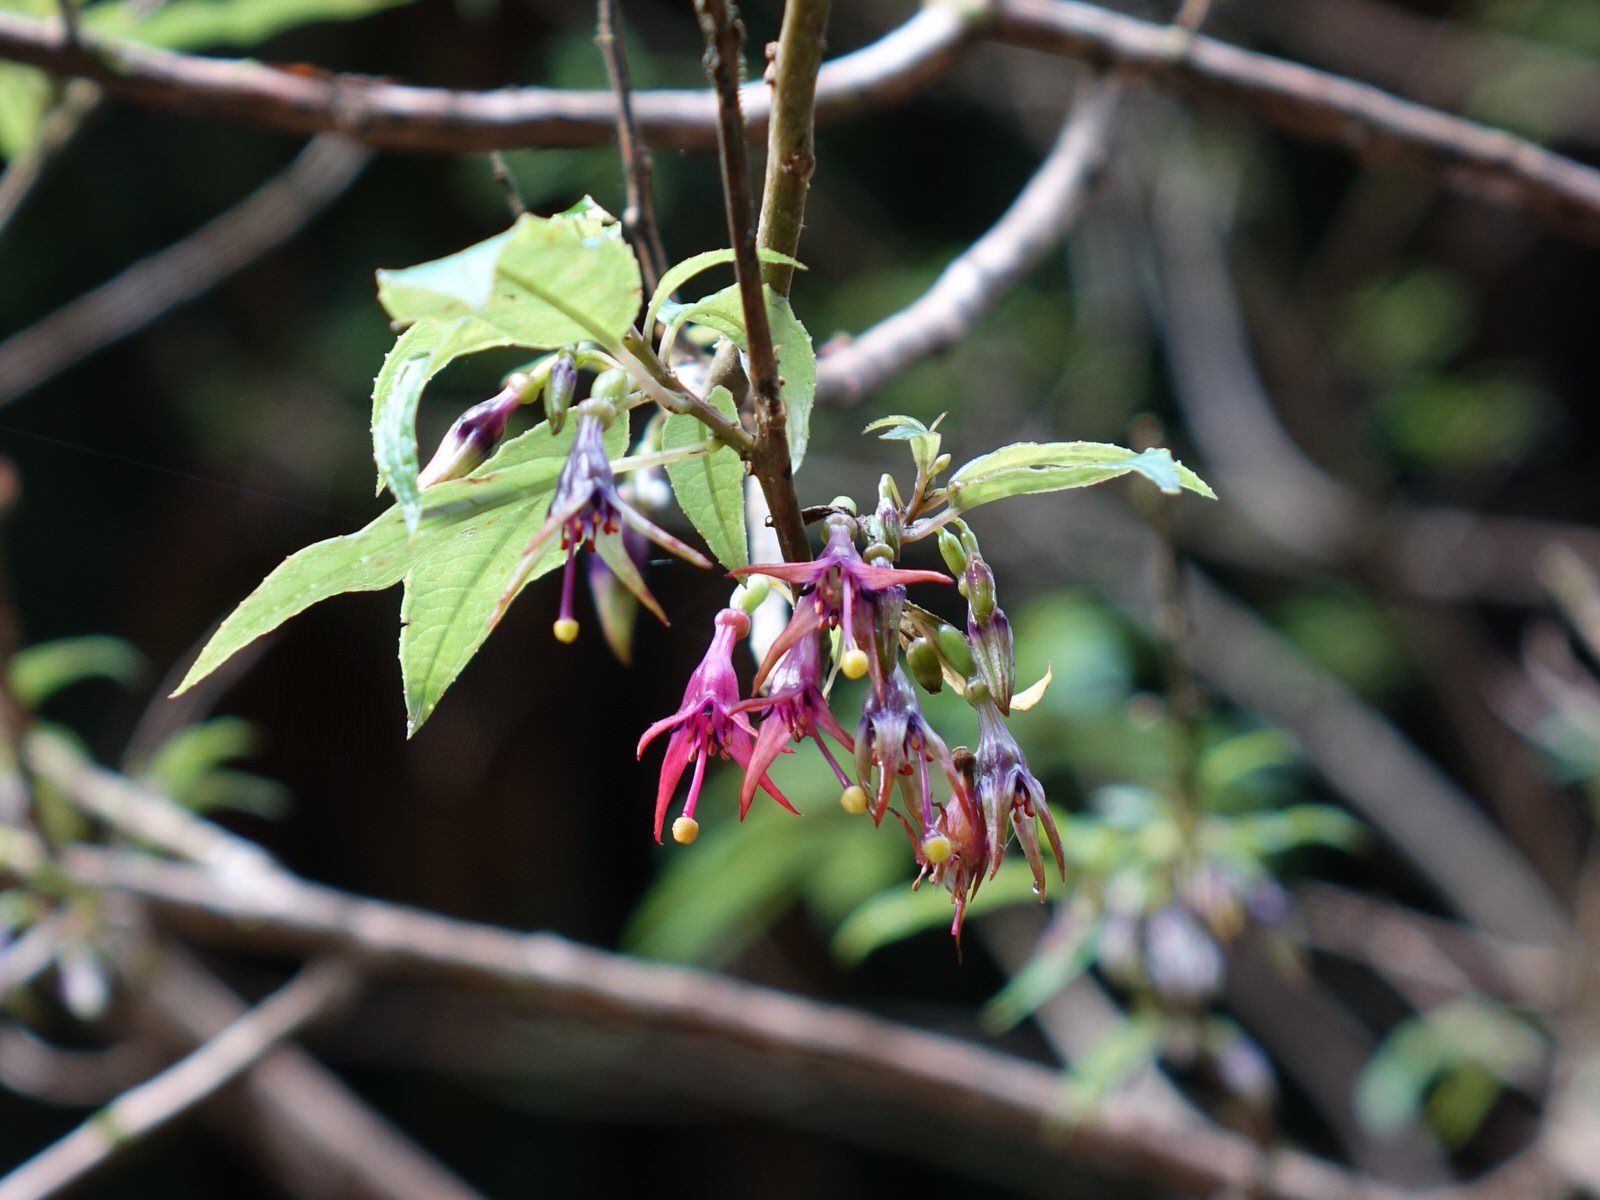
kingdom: Plantae
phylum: Tracheophyta
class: Magnoliopsida
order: Myrtales
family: Onagraceae
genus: Fuchsia
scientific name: Fuchsia excorticata
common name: Tree fuchsia
